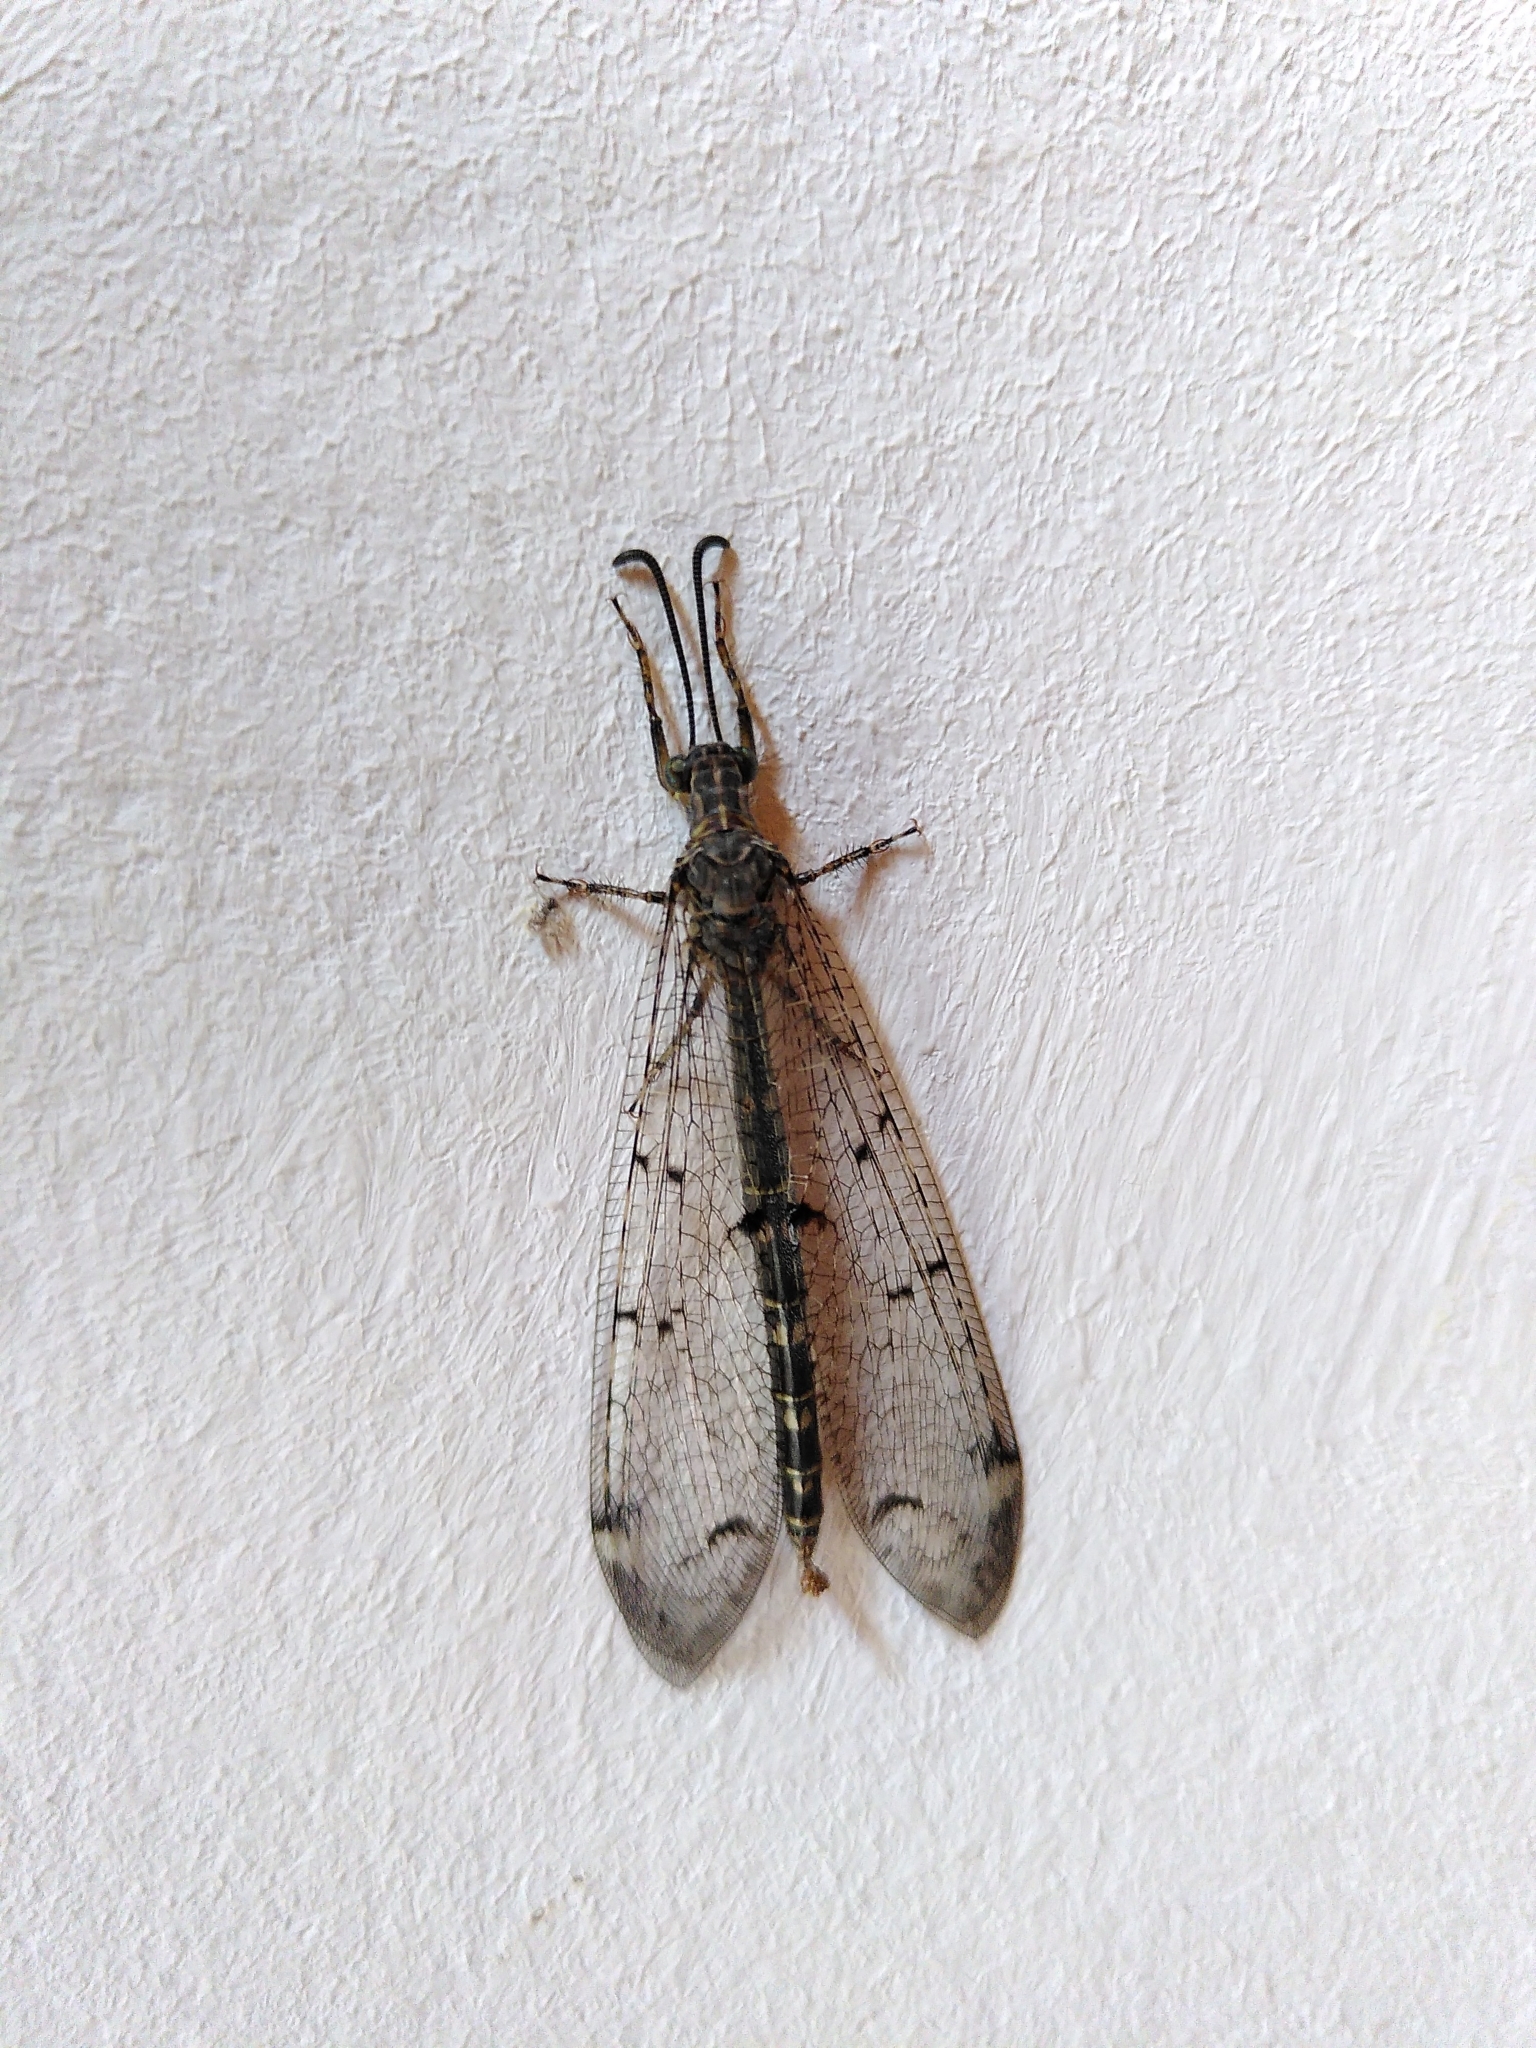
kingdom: Animalia
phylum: Arthropoda
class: Insecta
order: Neuroptera
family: Myrmeleontidae
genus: Distoleon
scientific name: Distoleon tetragrammicus
